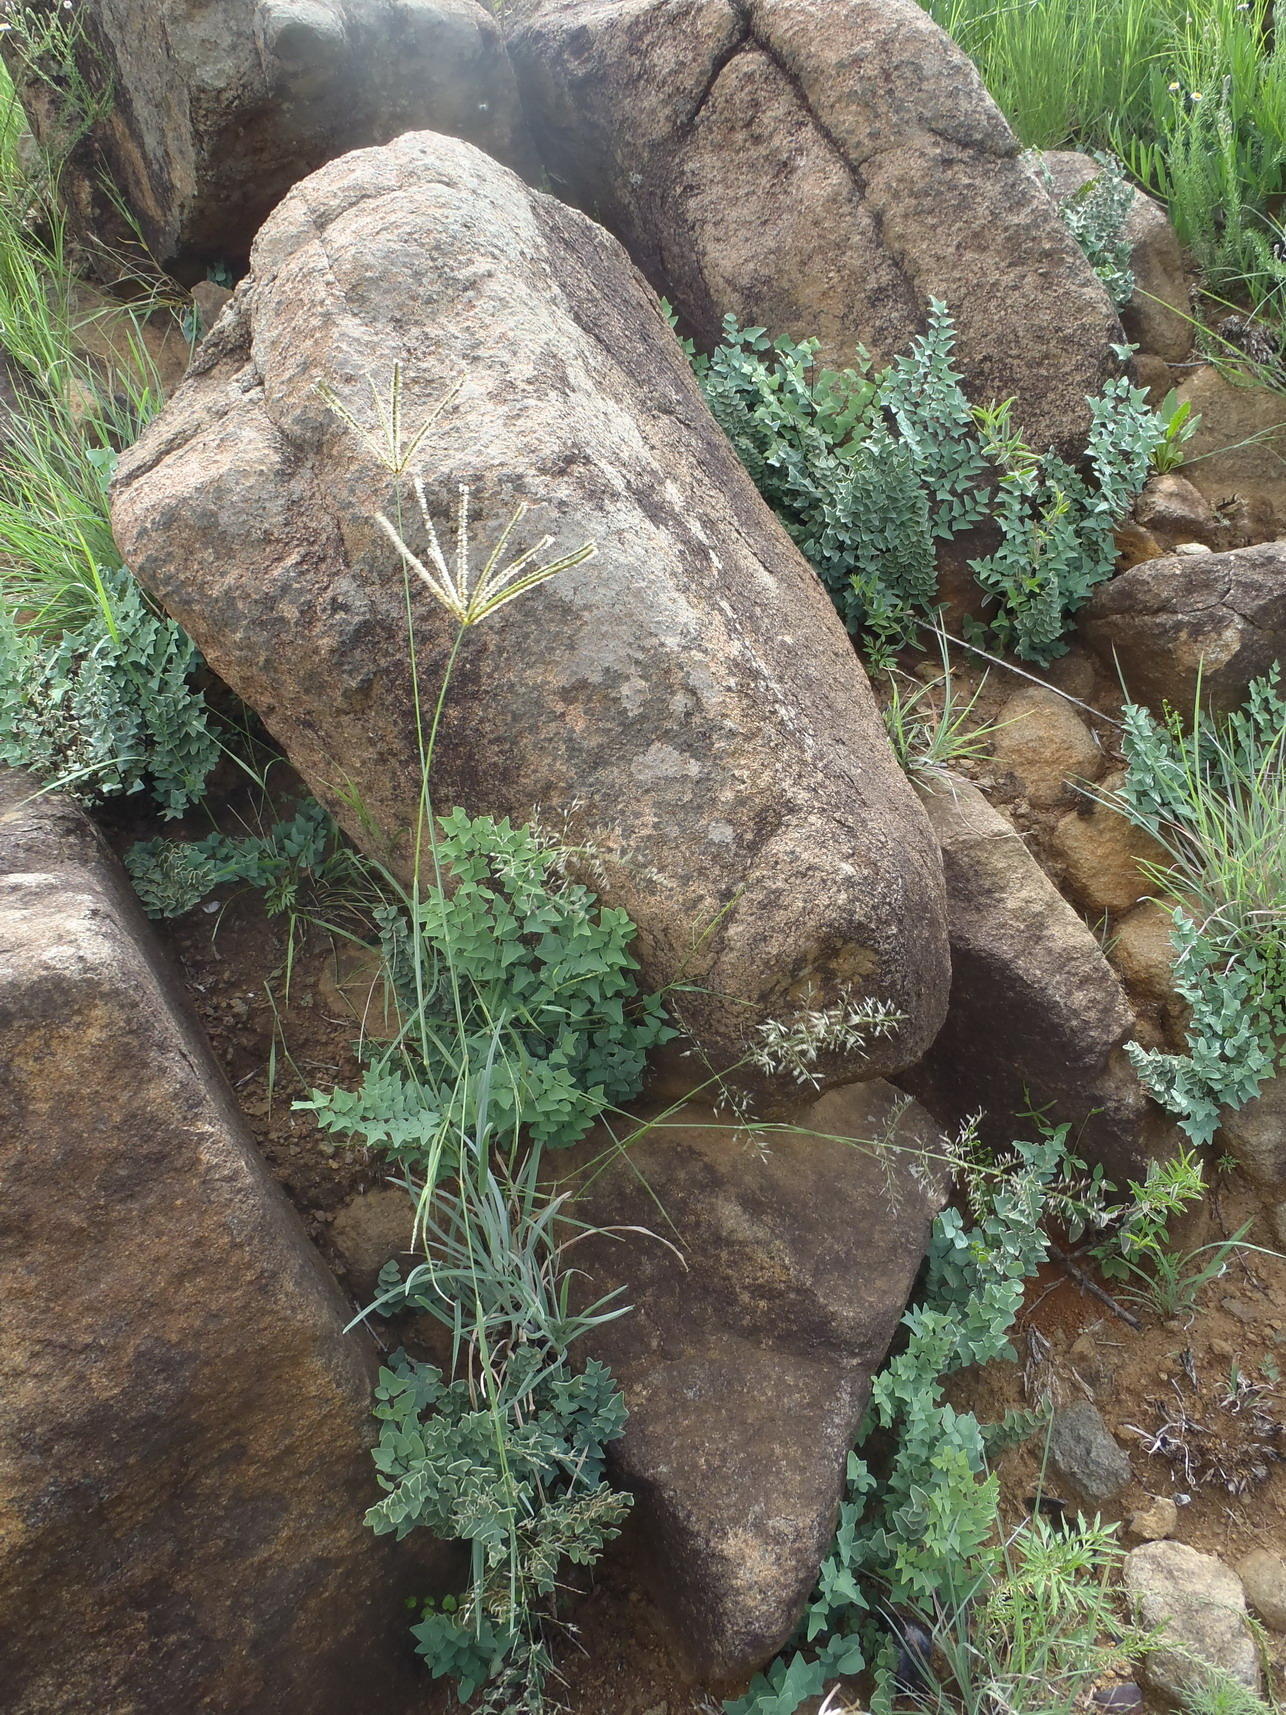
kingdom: Plantae
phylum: Tracheophyta
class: Polypodiopsida
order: Polypodiales
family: Pteridaceae
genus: Pellaea
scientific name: Pellaea calomelanos
